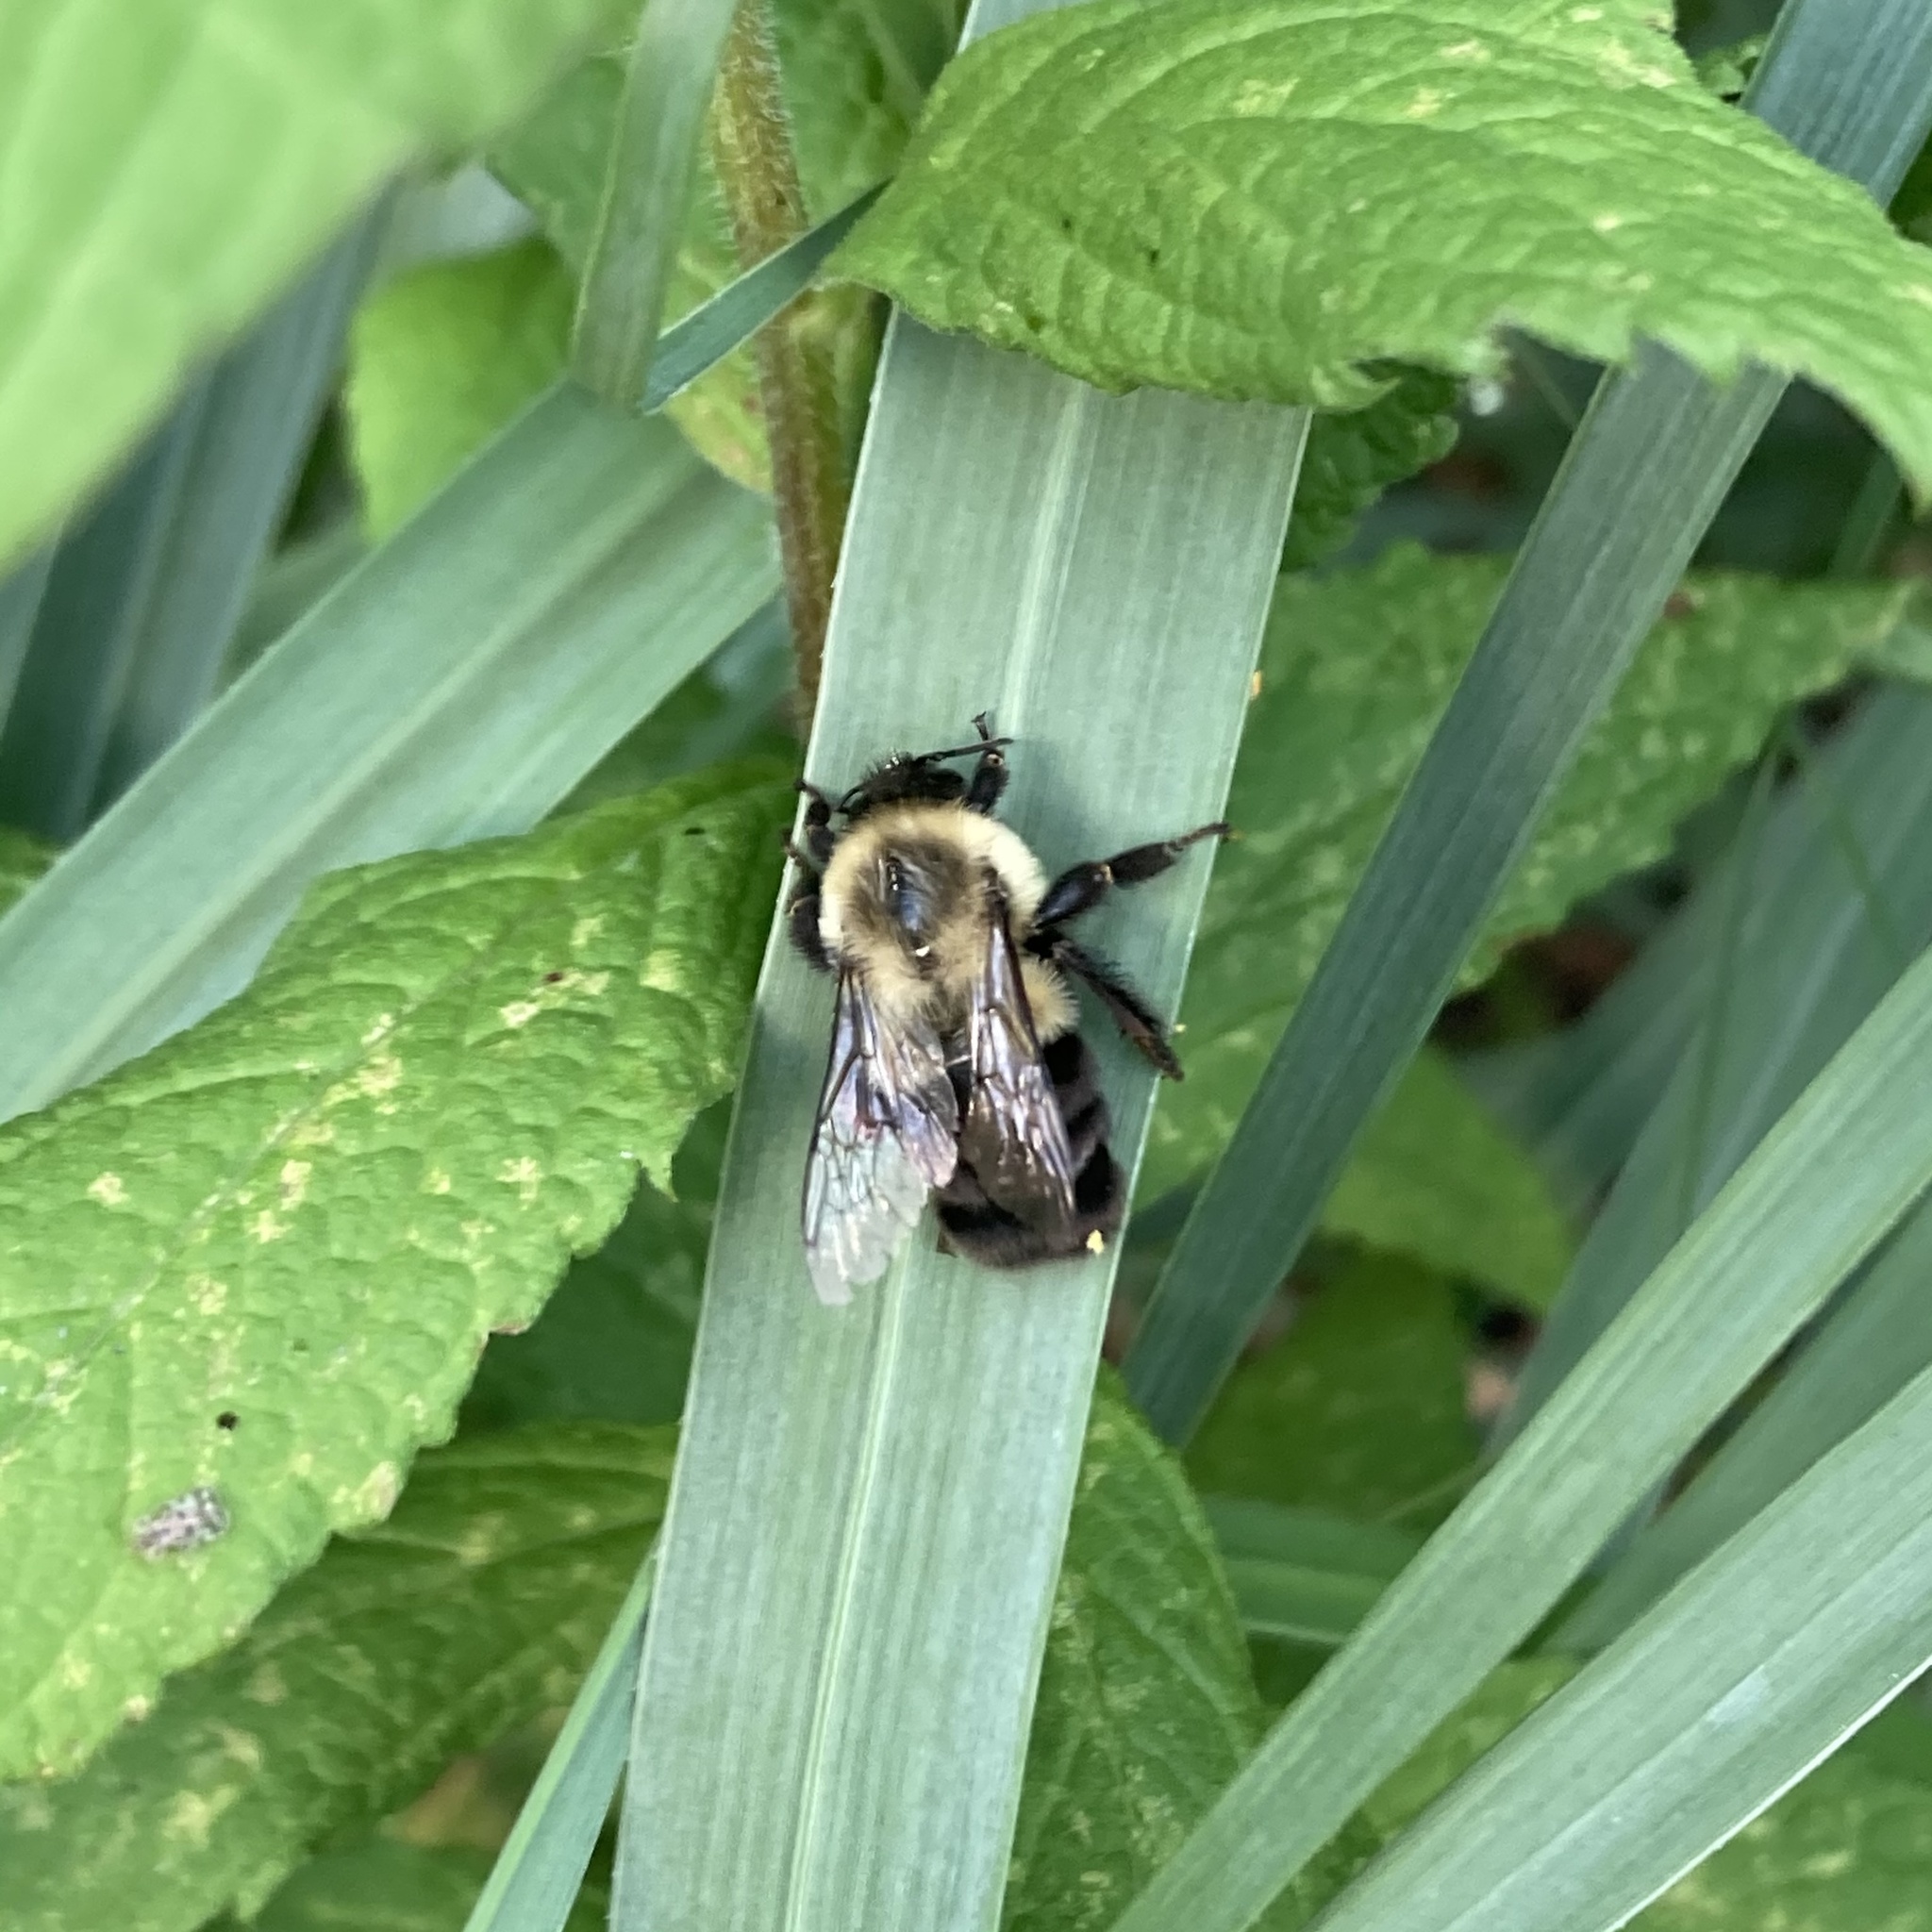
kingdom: Animalia
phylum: Arthropoda
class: Insecta
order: Hymenoptera
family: Apidae
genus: Bombus
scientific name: Bombus impatiens
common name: Common eastern bumble bee
